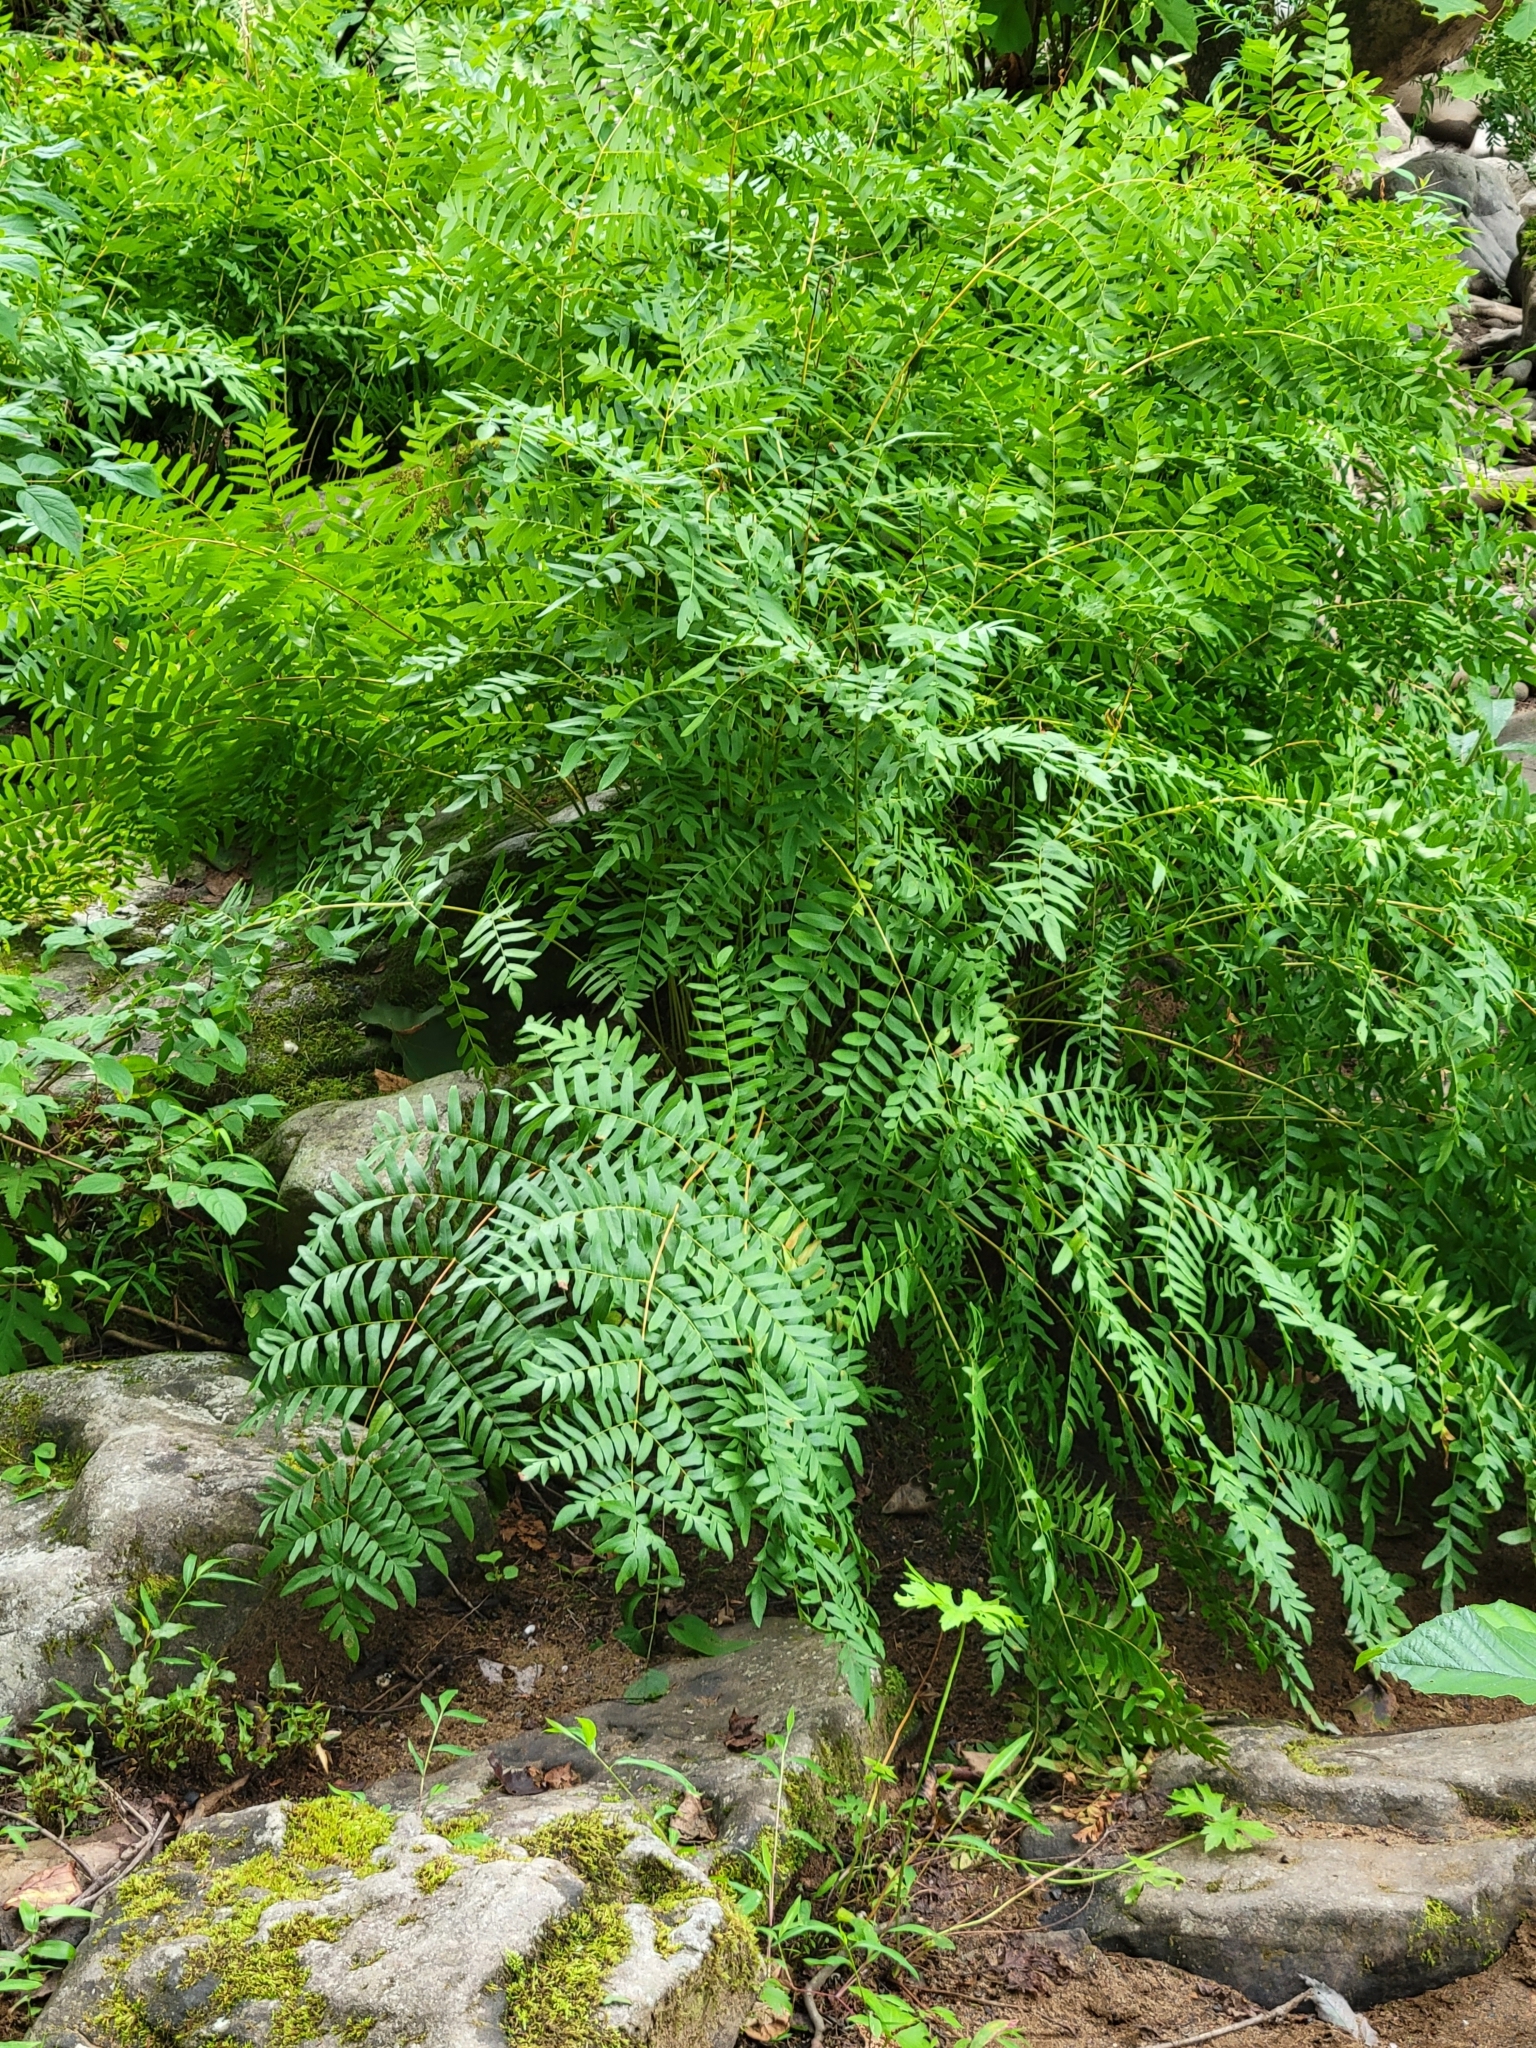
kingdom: Plantae
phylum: Tracheophyta
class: Polypodiopsida
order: Osmundales
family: Osmundaceae
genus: Osmunda
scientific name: Osmunda spectabilis
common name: American royal fern
